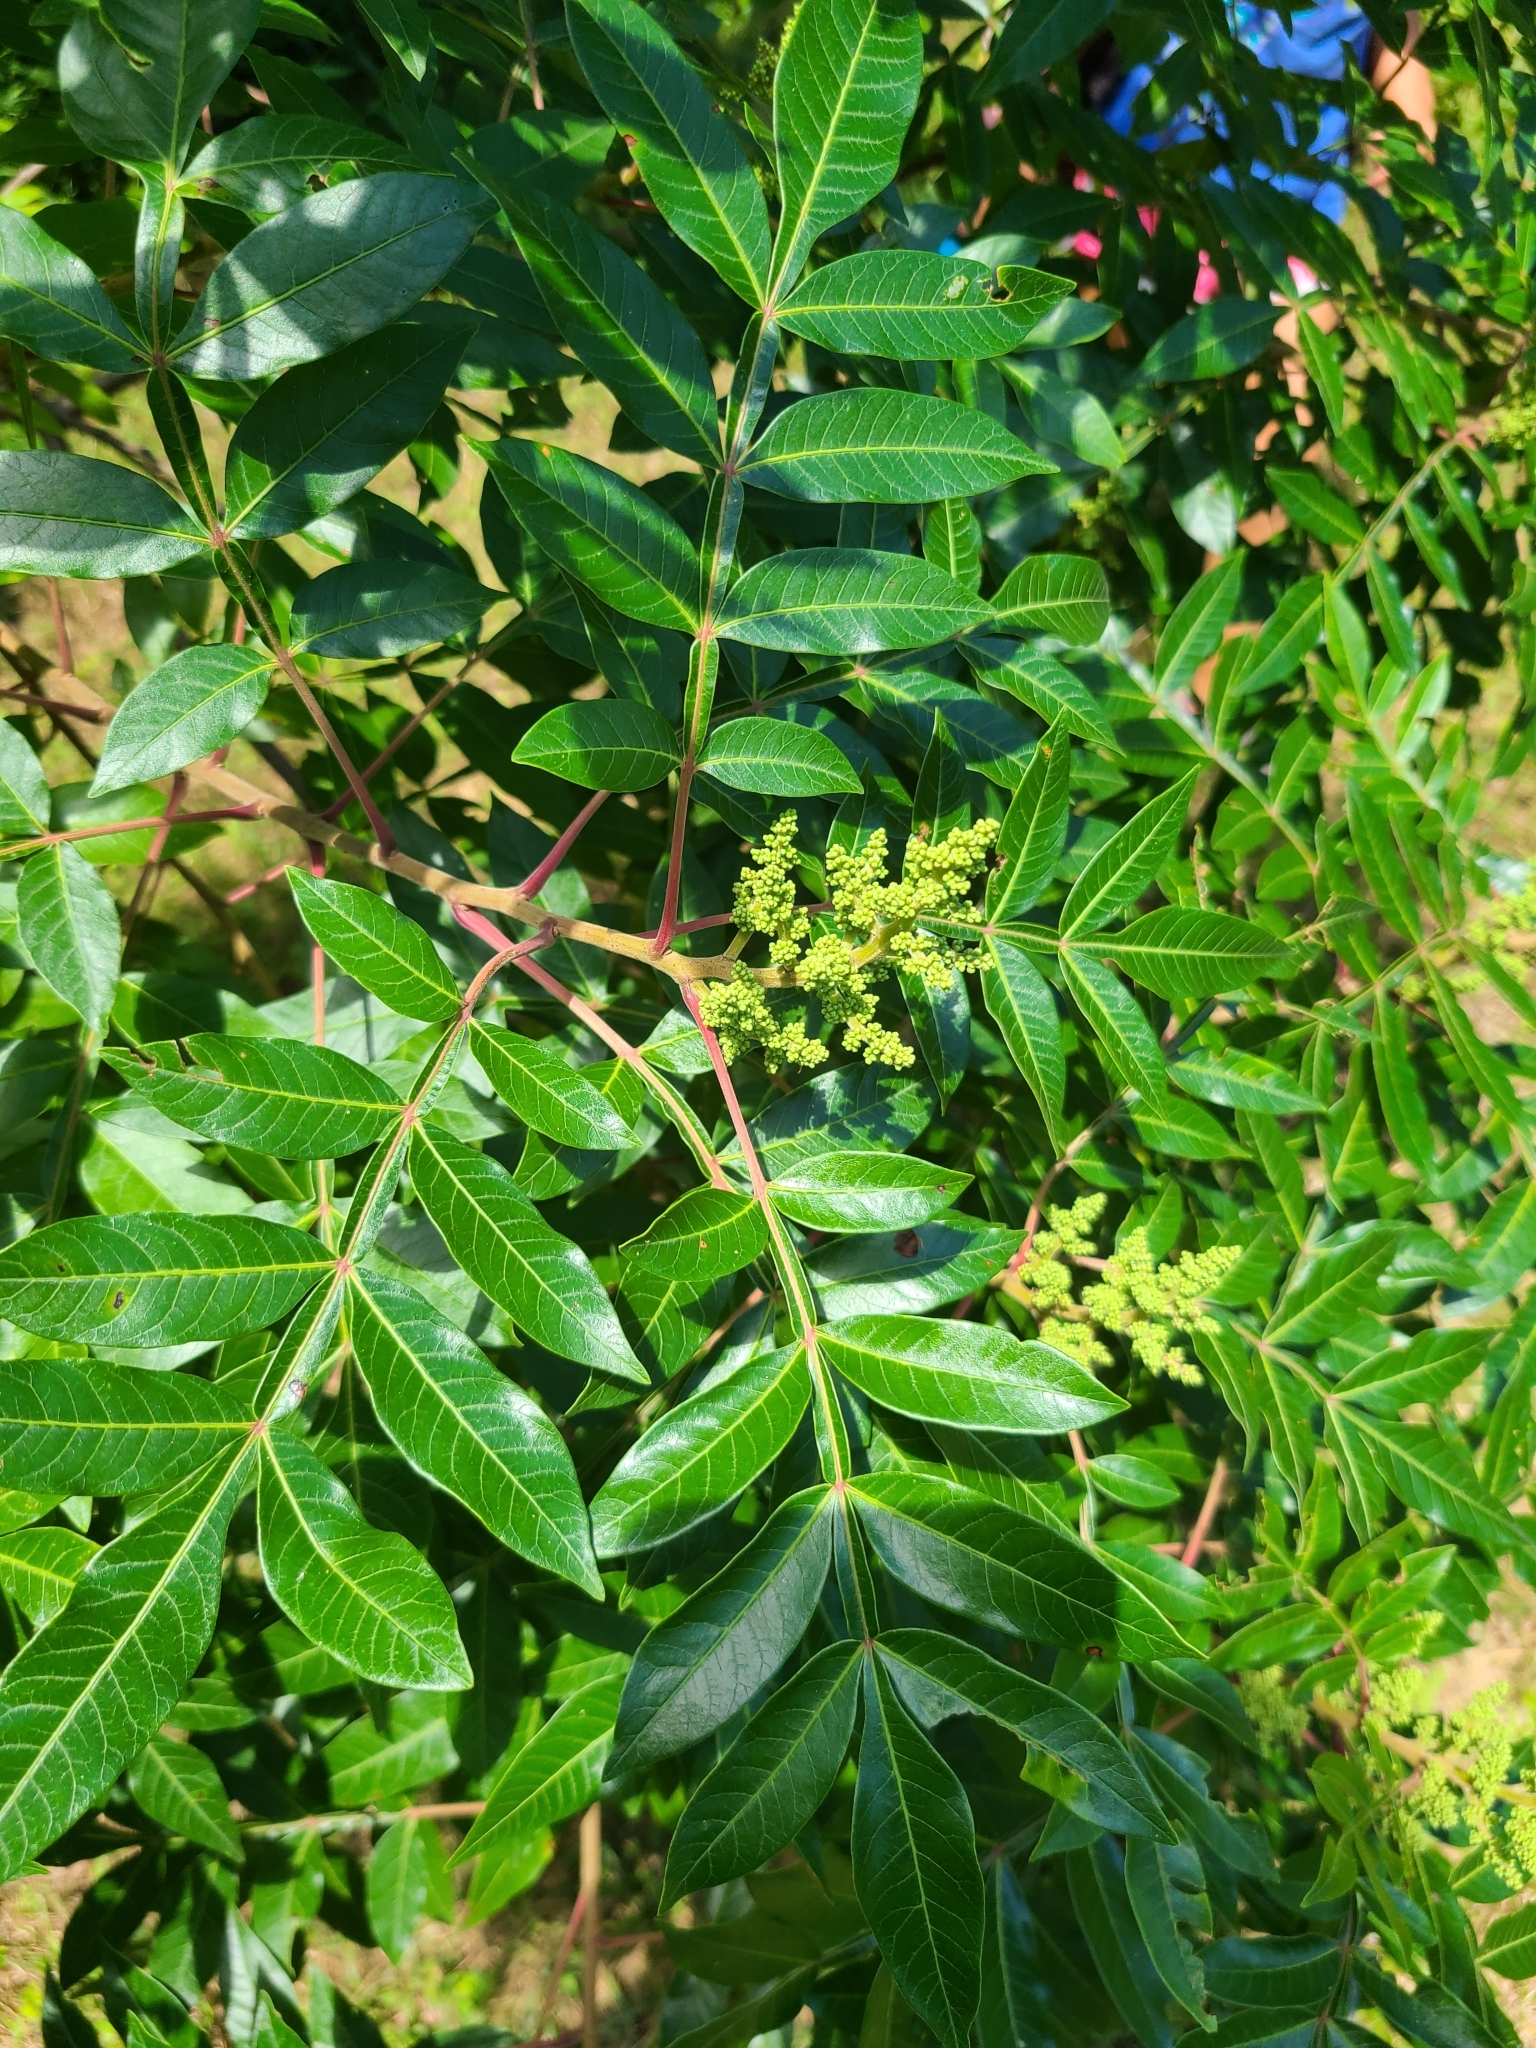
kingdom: Plantae
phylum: Tracheophyta
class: Magnoliopsida
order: Sapindales
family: Anacardiaceae
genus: Rhus
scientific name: Rhus copallina
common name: Shining sumac
